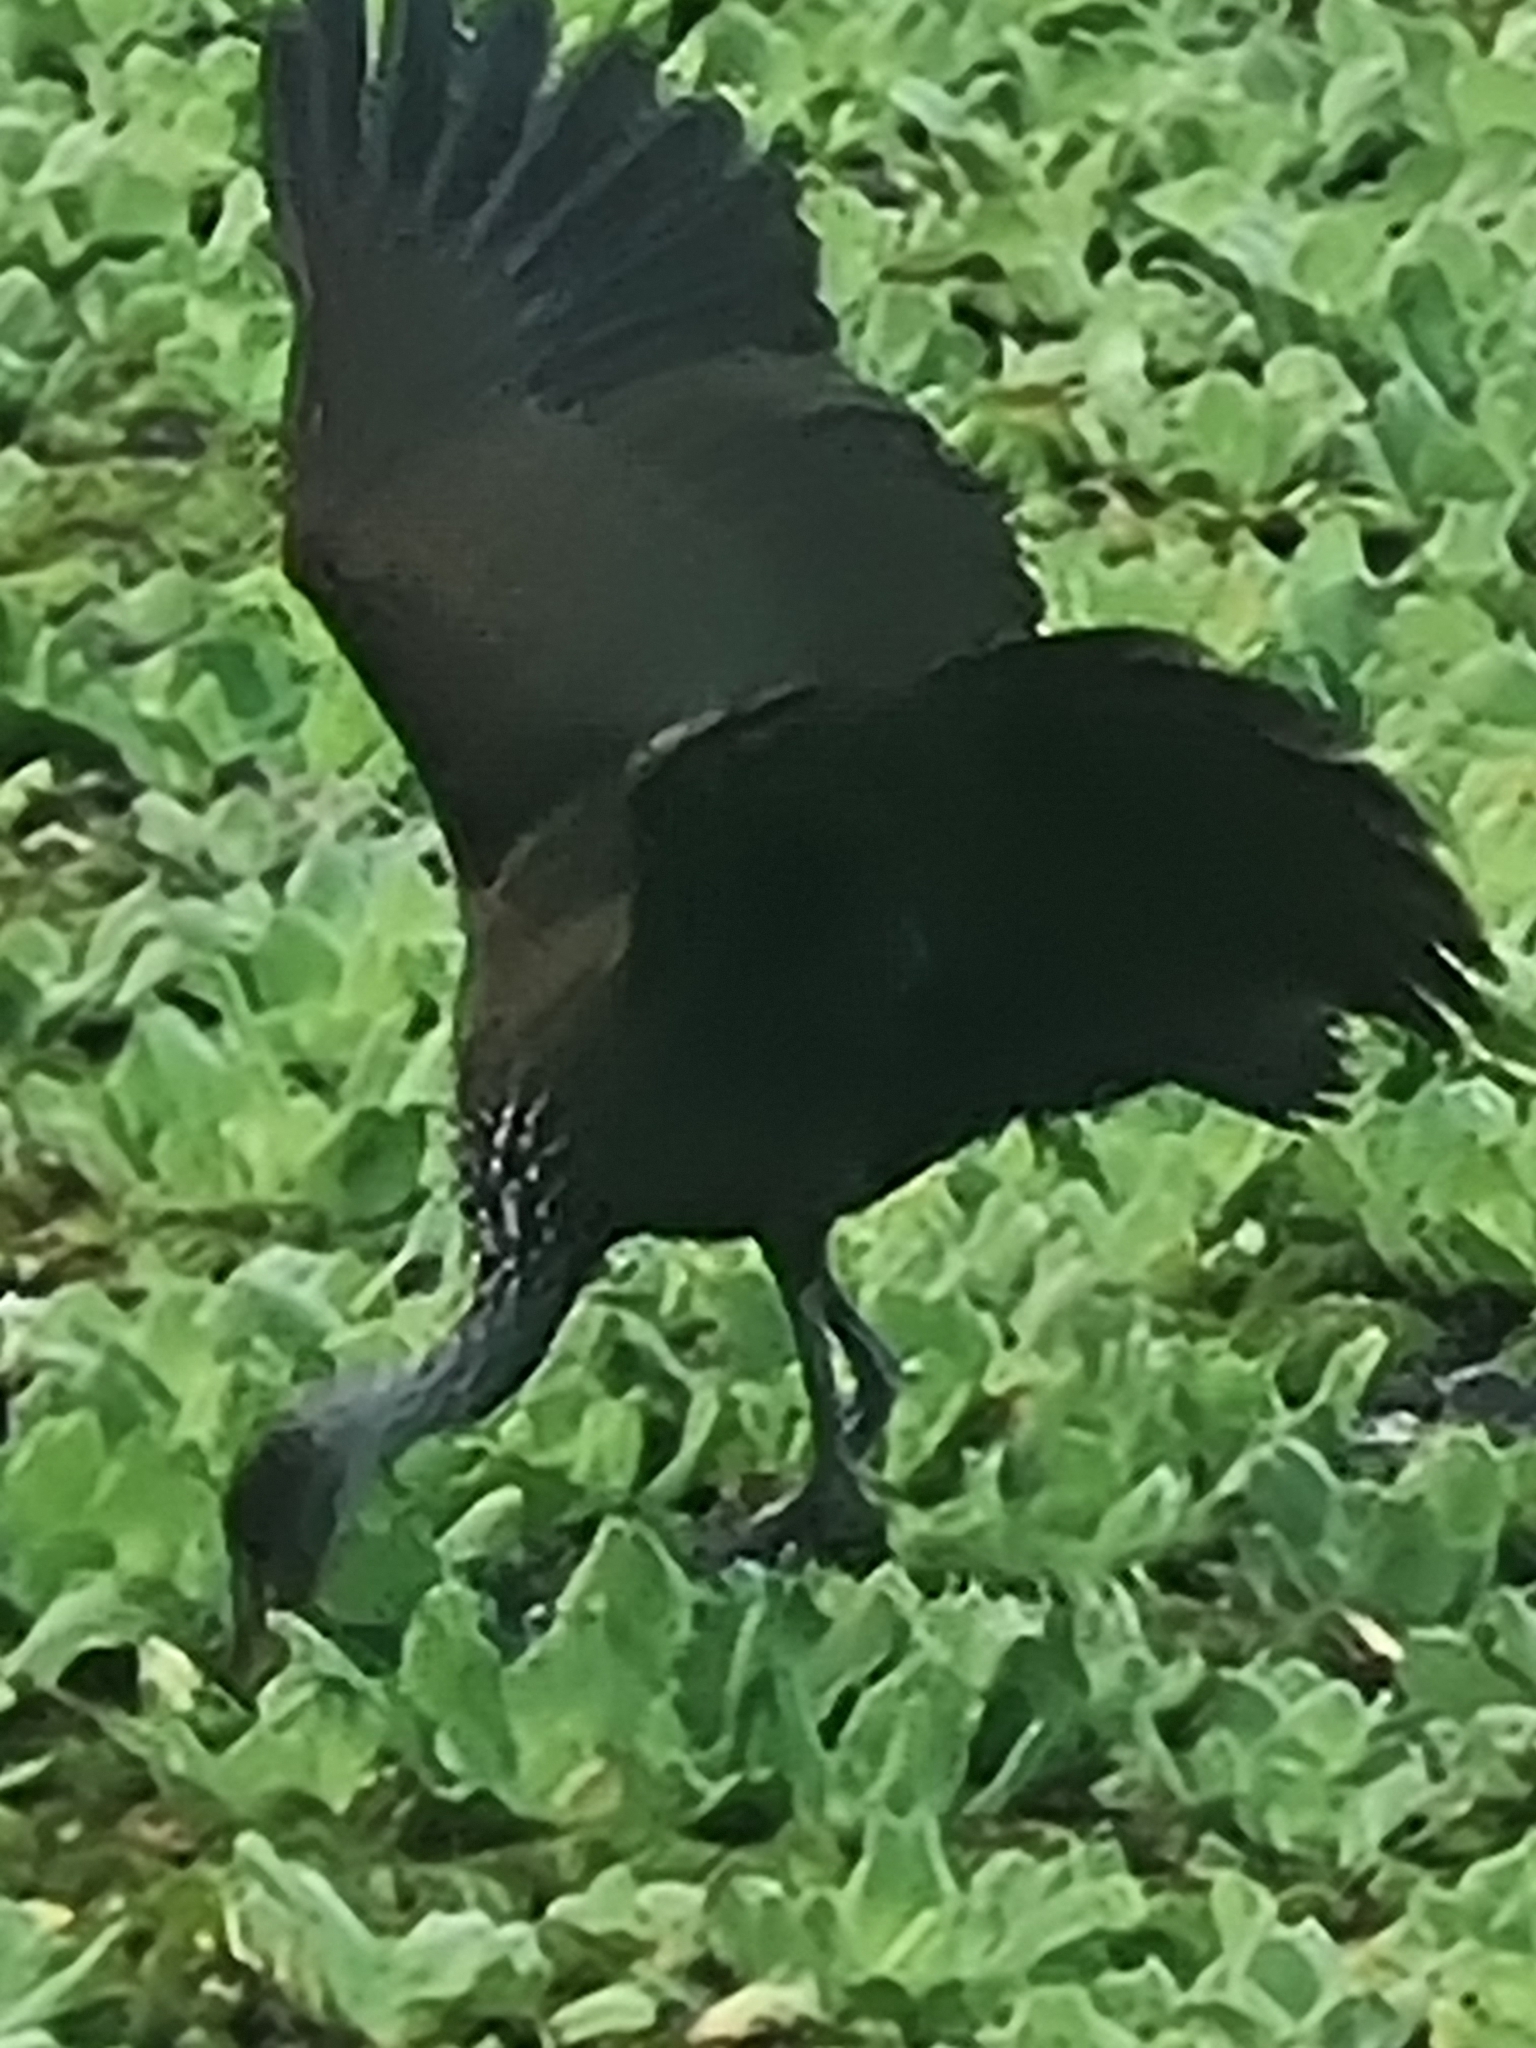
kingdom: Animalia
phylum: Chordata
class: Aves
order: Gruiformes
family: Aramidae
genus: Aramus
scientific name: Aramus guarauna
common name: Limpkin
